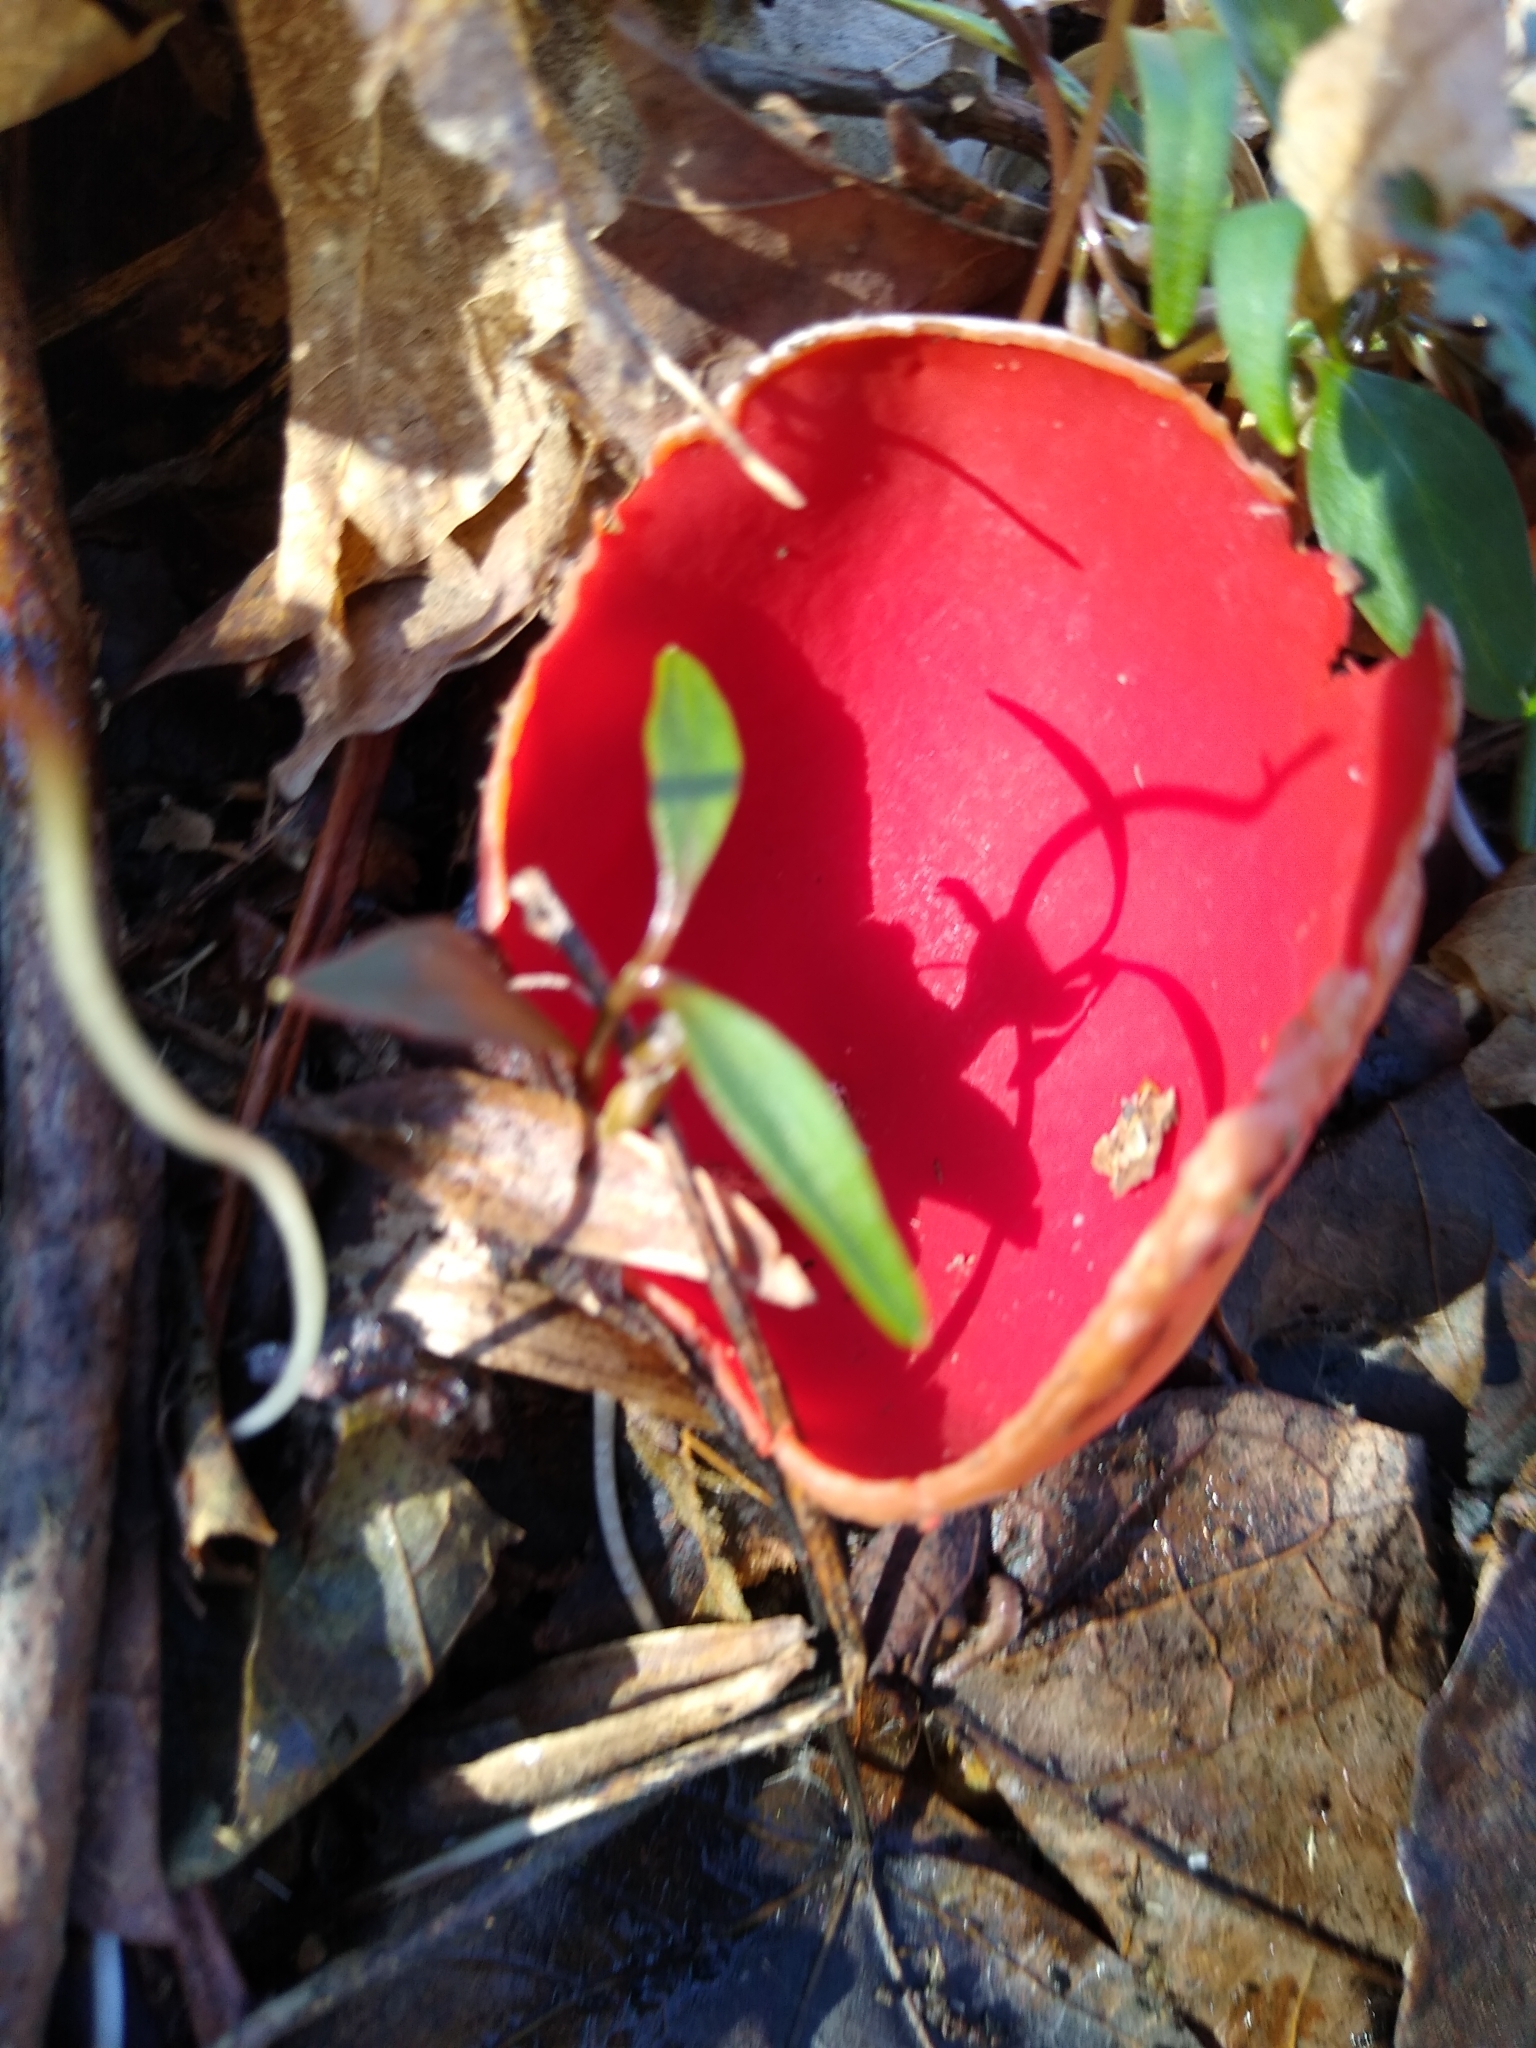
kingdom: Fungi
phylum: Ascomycota
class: Pezizomycetes
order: Pezizales
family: Sarcoscyphaceae
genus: Sarcoscypha
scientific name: Sarcoscypha austriaca
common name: Scarlet elfcup
